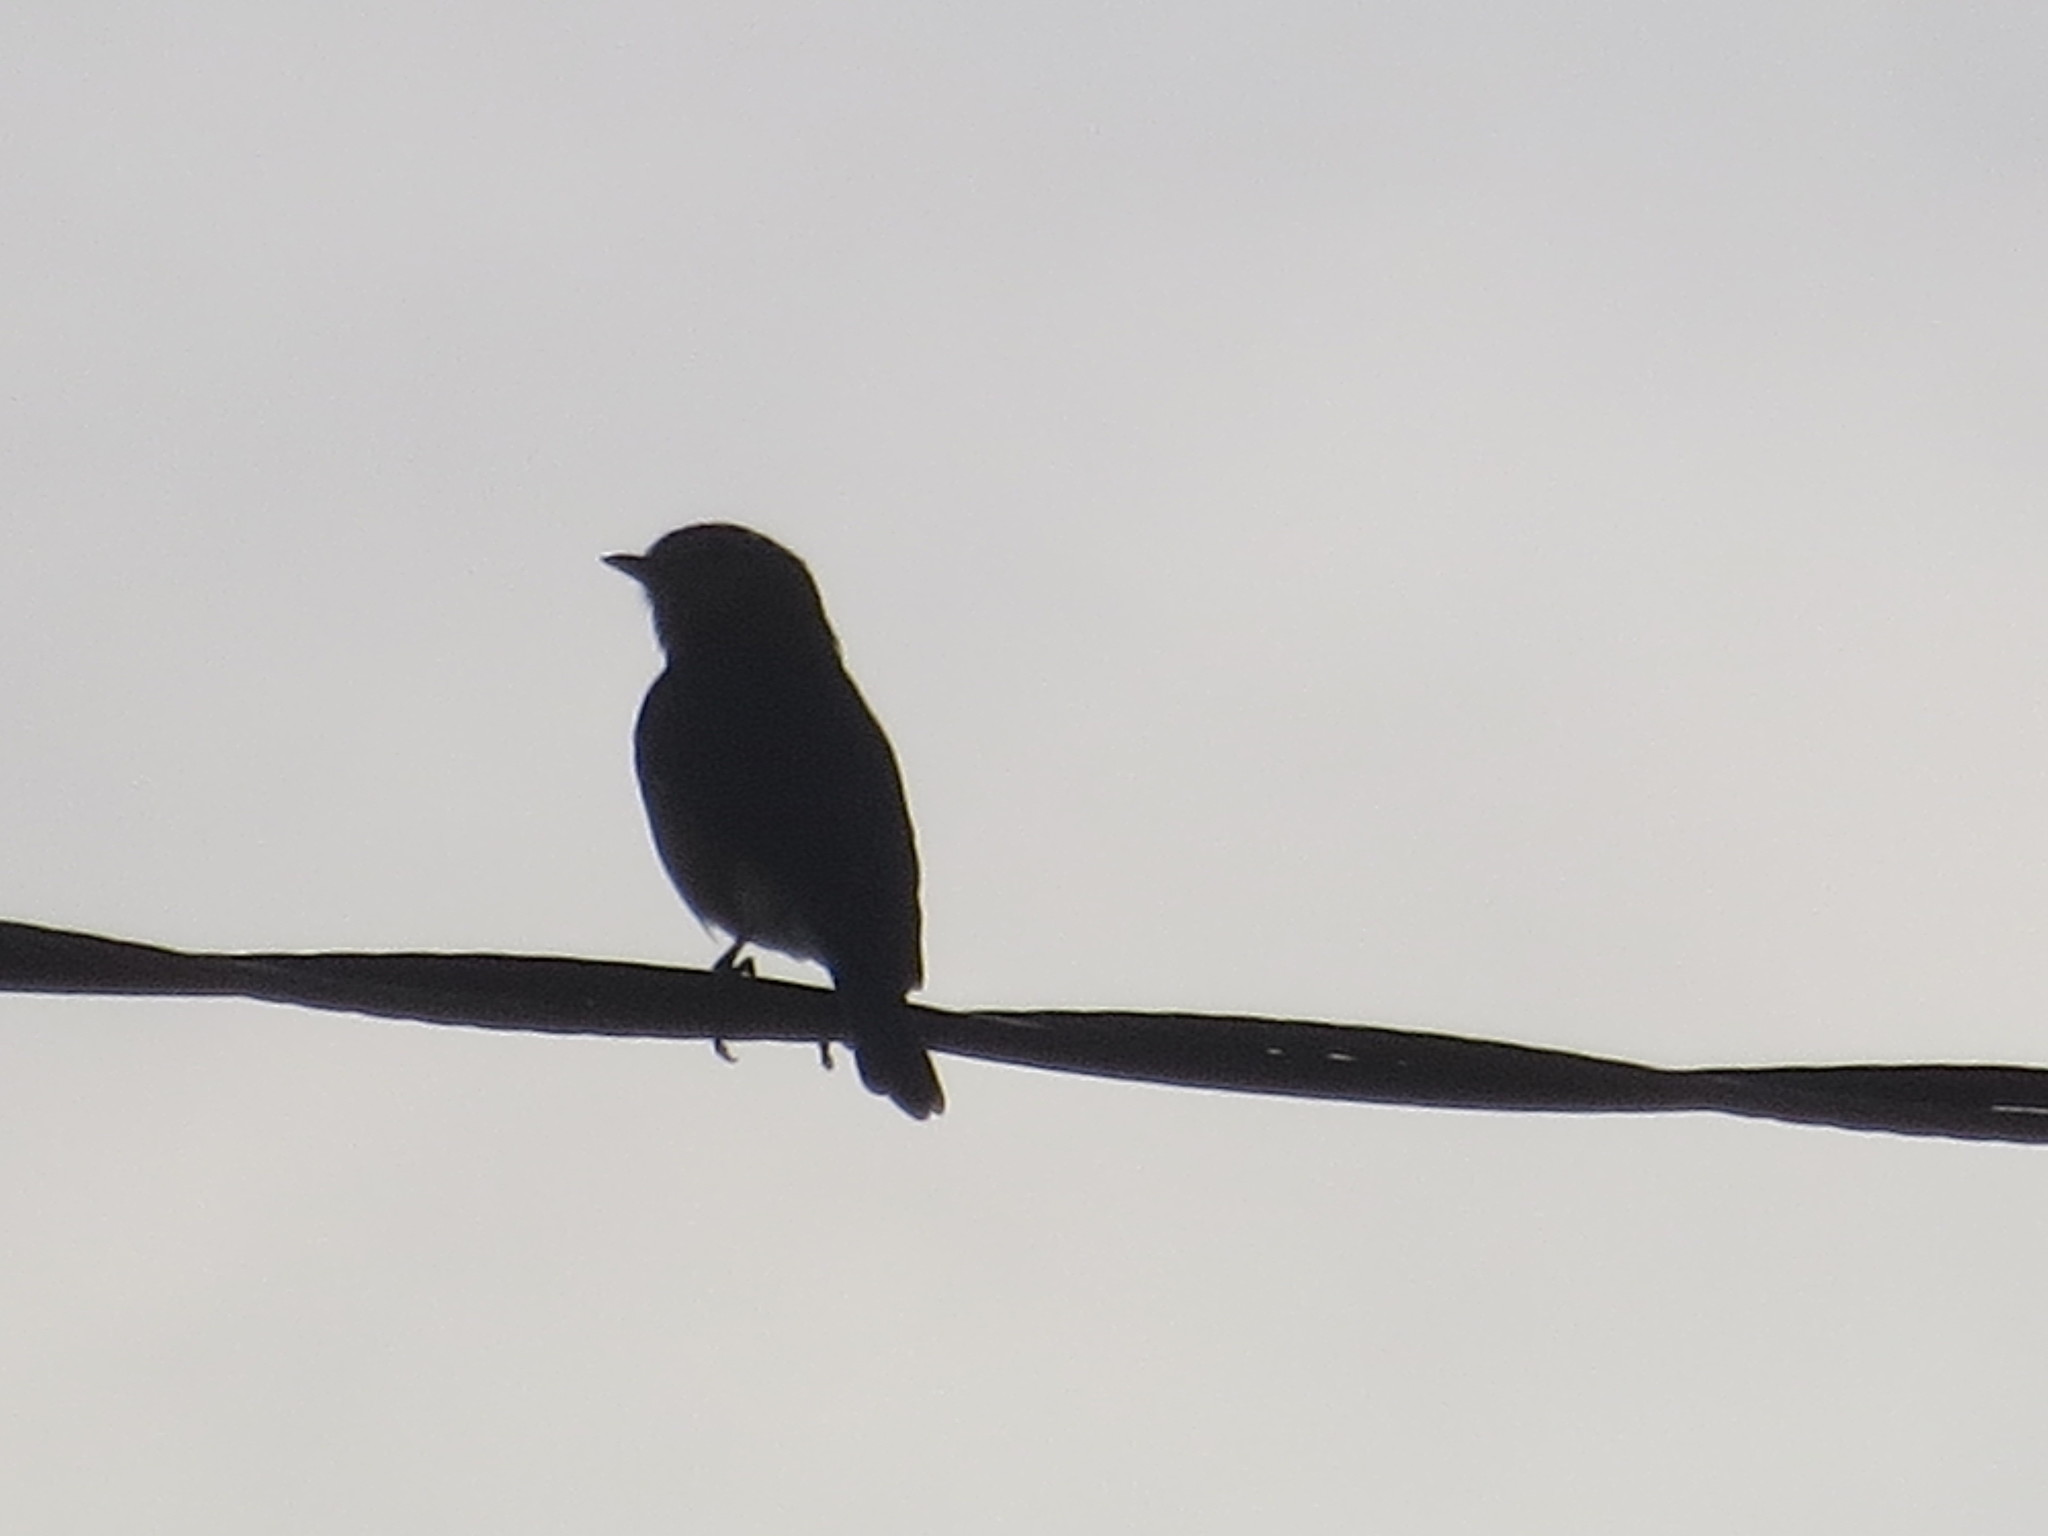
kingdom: Animalia
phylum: Chordata
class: Aves
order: Passeriformes
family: Turdidae
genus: Sialia
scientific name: Sialia sialis
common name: Eastern bluebird
